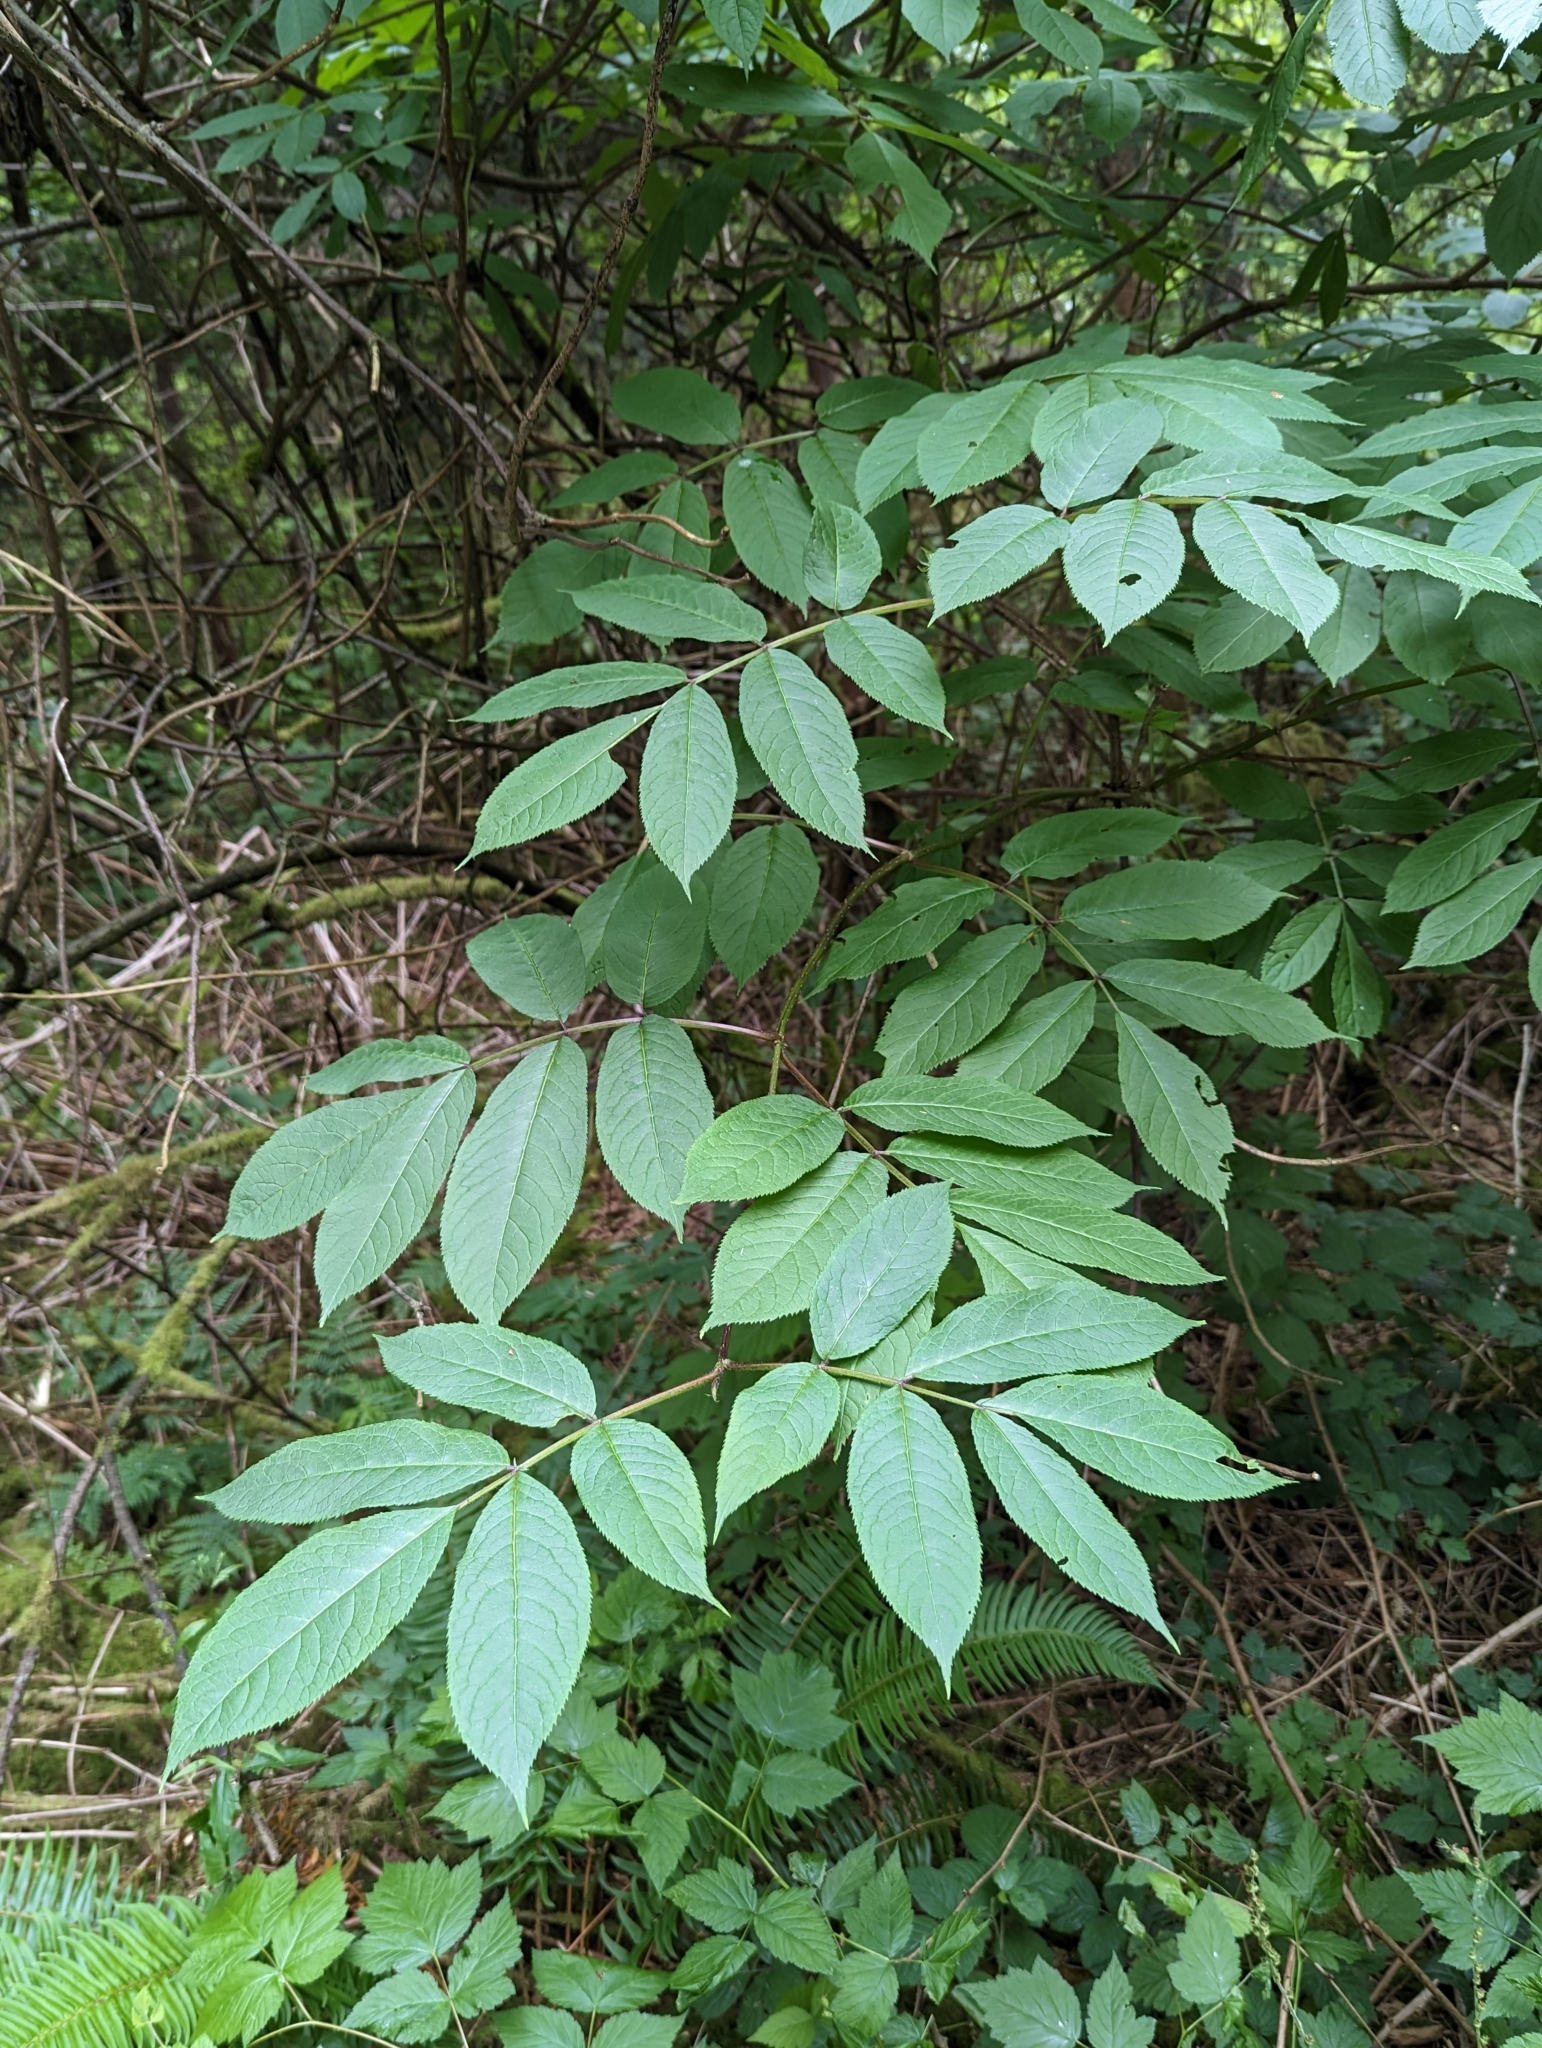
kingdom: Plantae
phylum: Tracheophyta
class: Magnoliopsida
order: Dipsacales
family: Viburnaceae
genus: Sambucus
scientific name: Sambucus racemosa
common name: Red-berried elder
